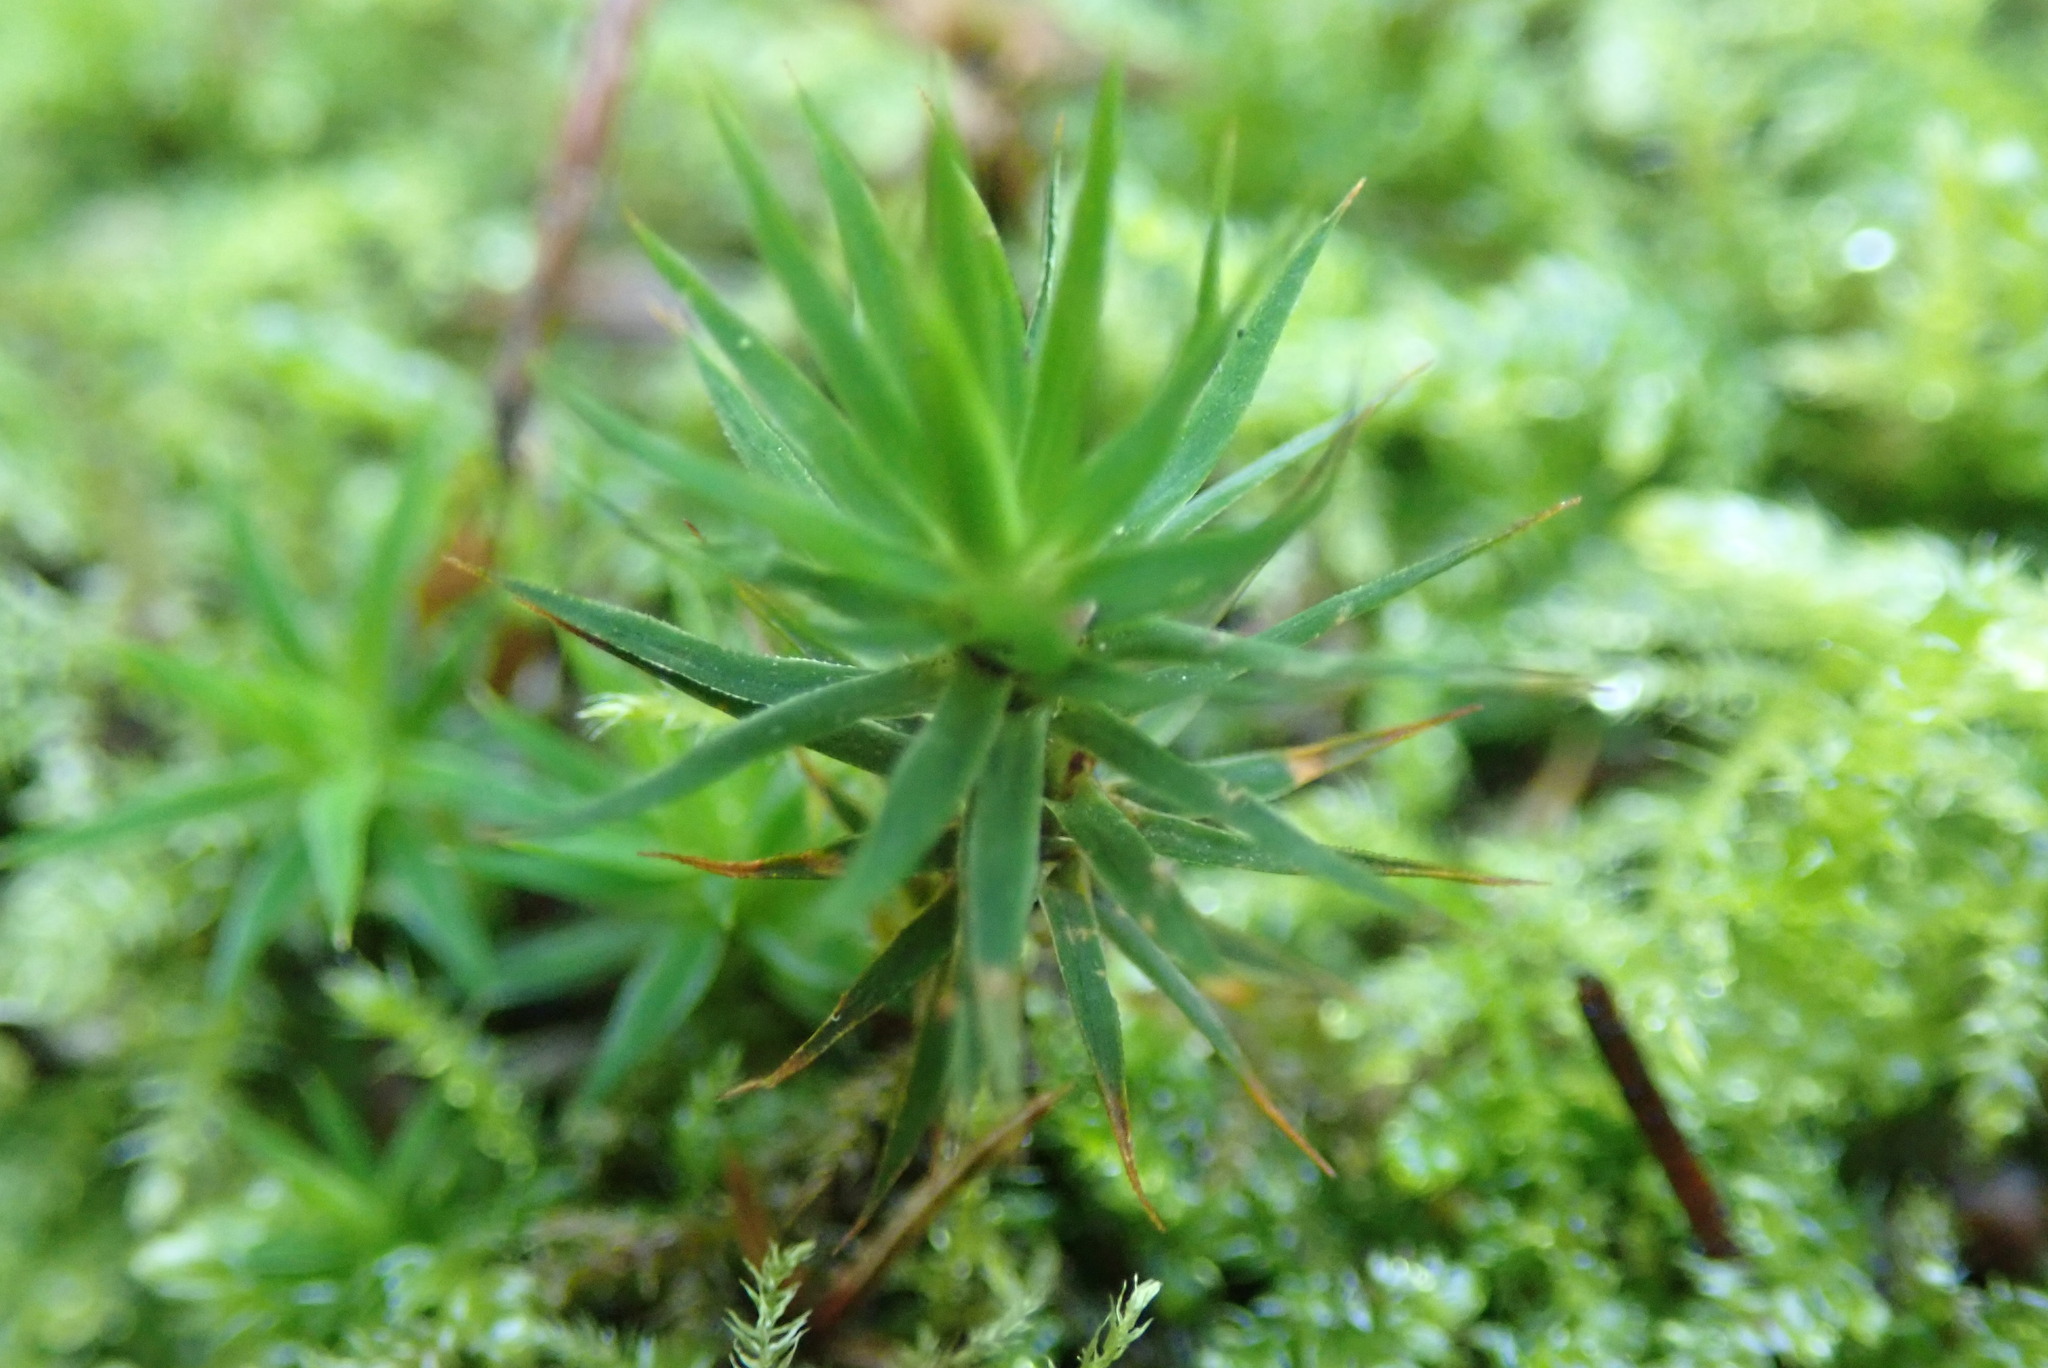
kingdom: Plantae
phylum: Bryophyta
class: Polytrichopsida
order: Polytrichales
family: Polytrichaceae
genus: Polytrichum
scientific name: Polytrichum formosum
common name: Bank haircap moss
